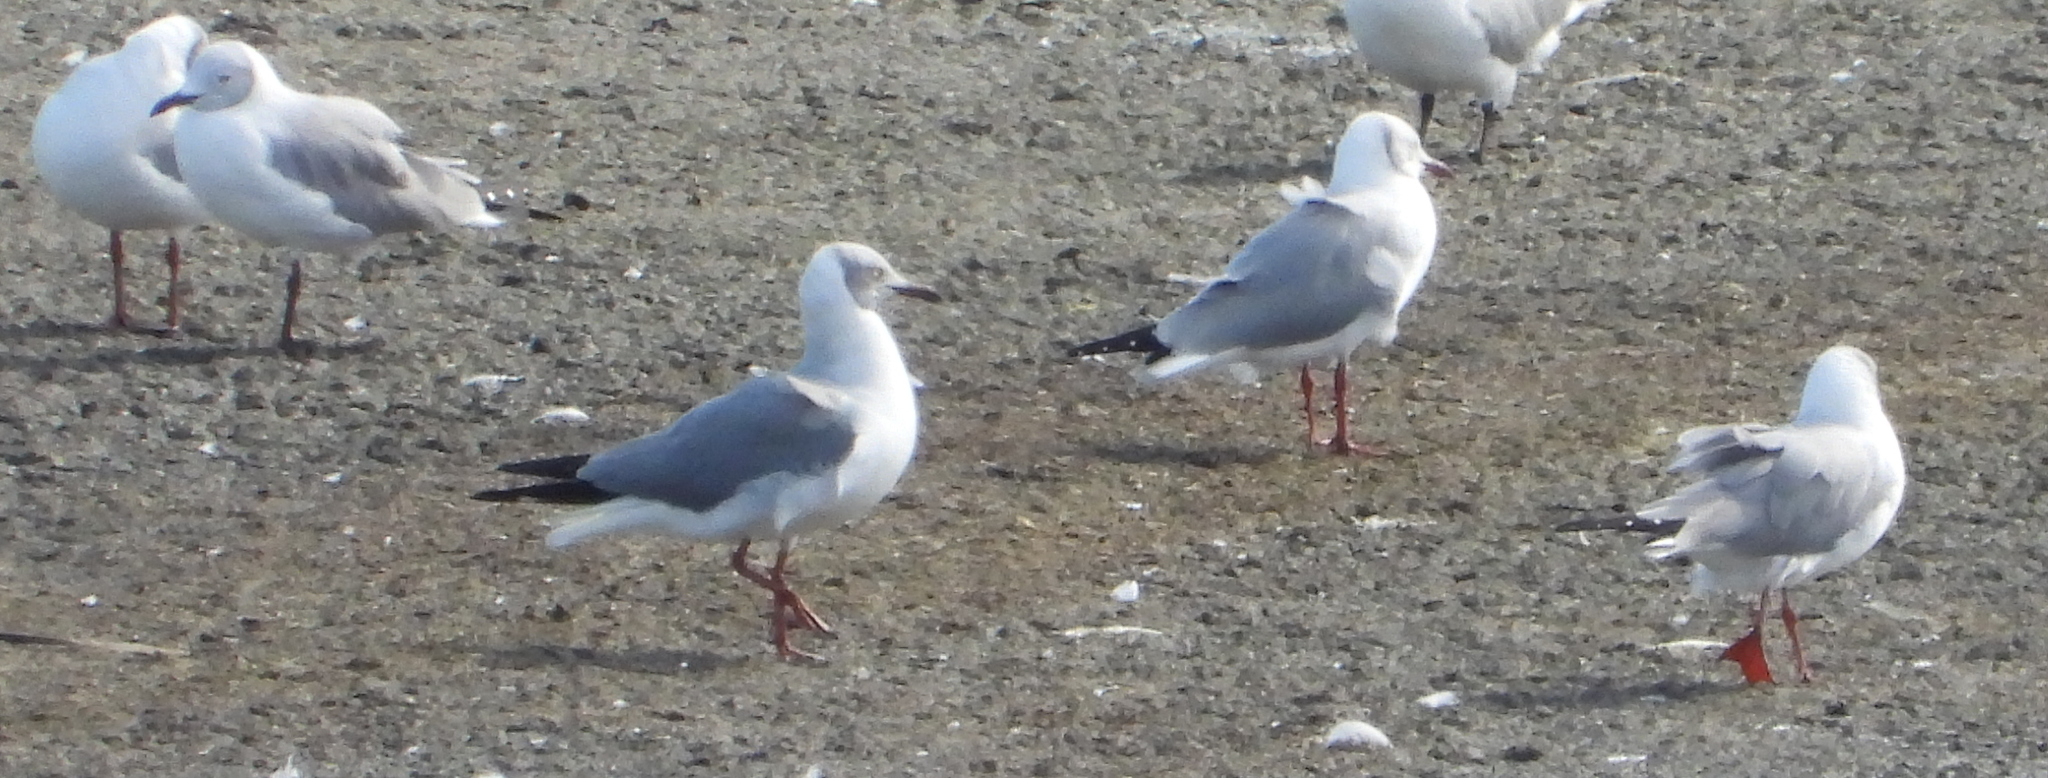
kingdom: Animalia
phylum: Chordata
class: Aves
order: Charadriiformes
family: Laridae
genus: Chroicocephalus
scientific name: Chroicocephalus cirrocephalus
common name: Grey-headed gull
